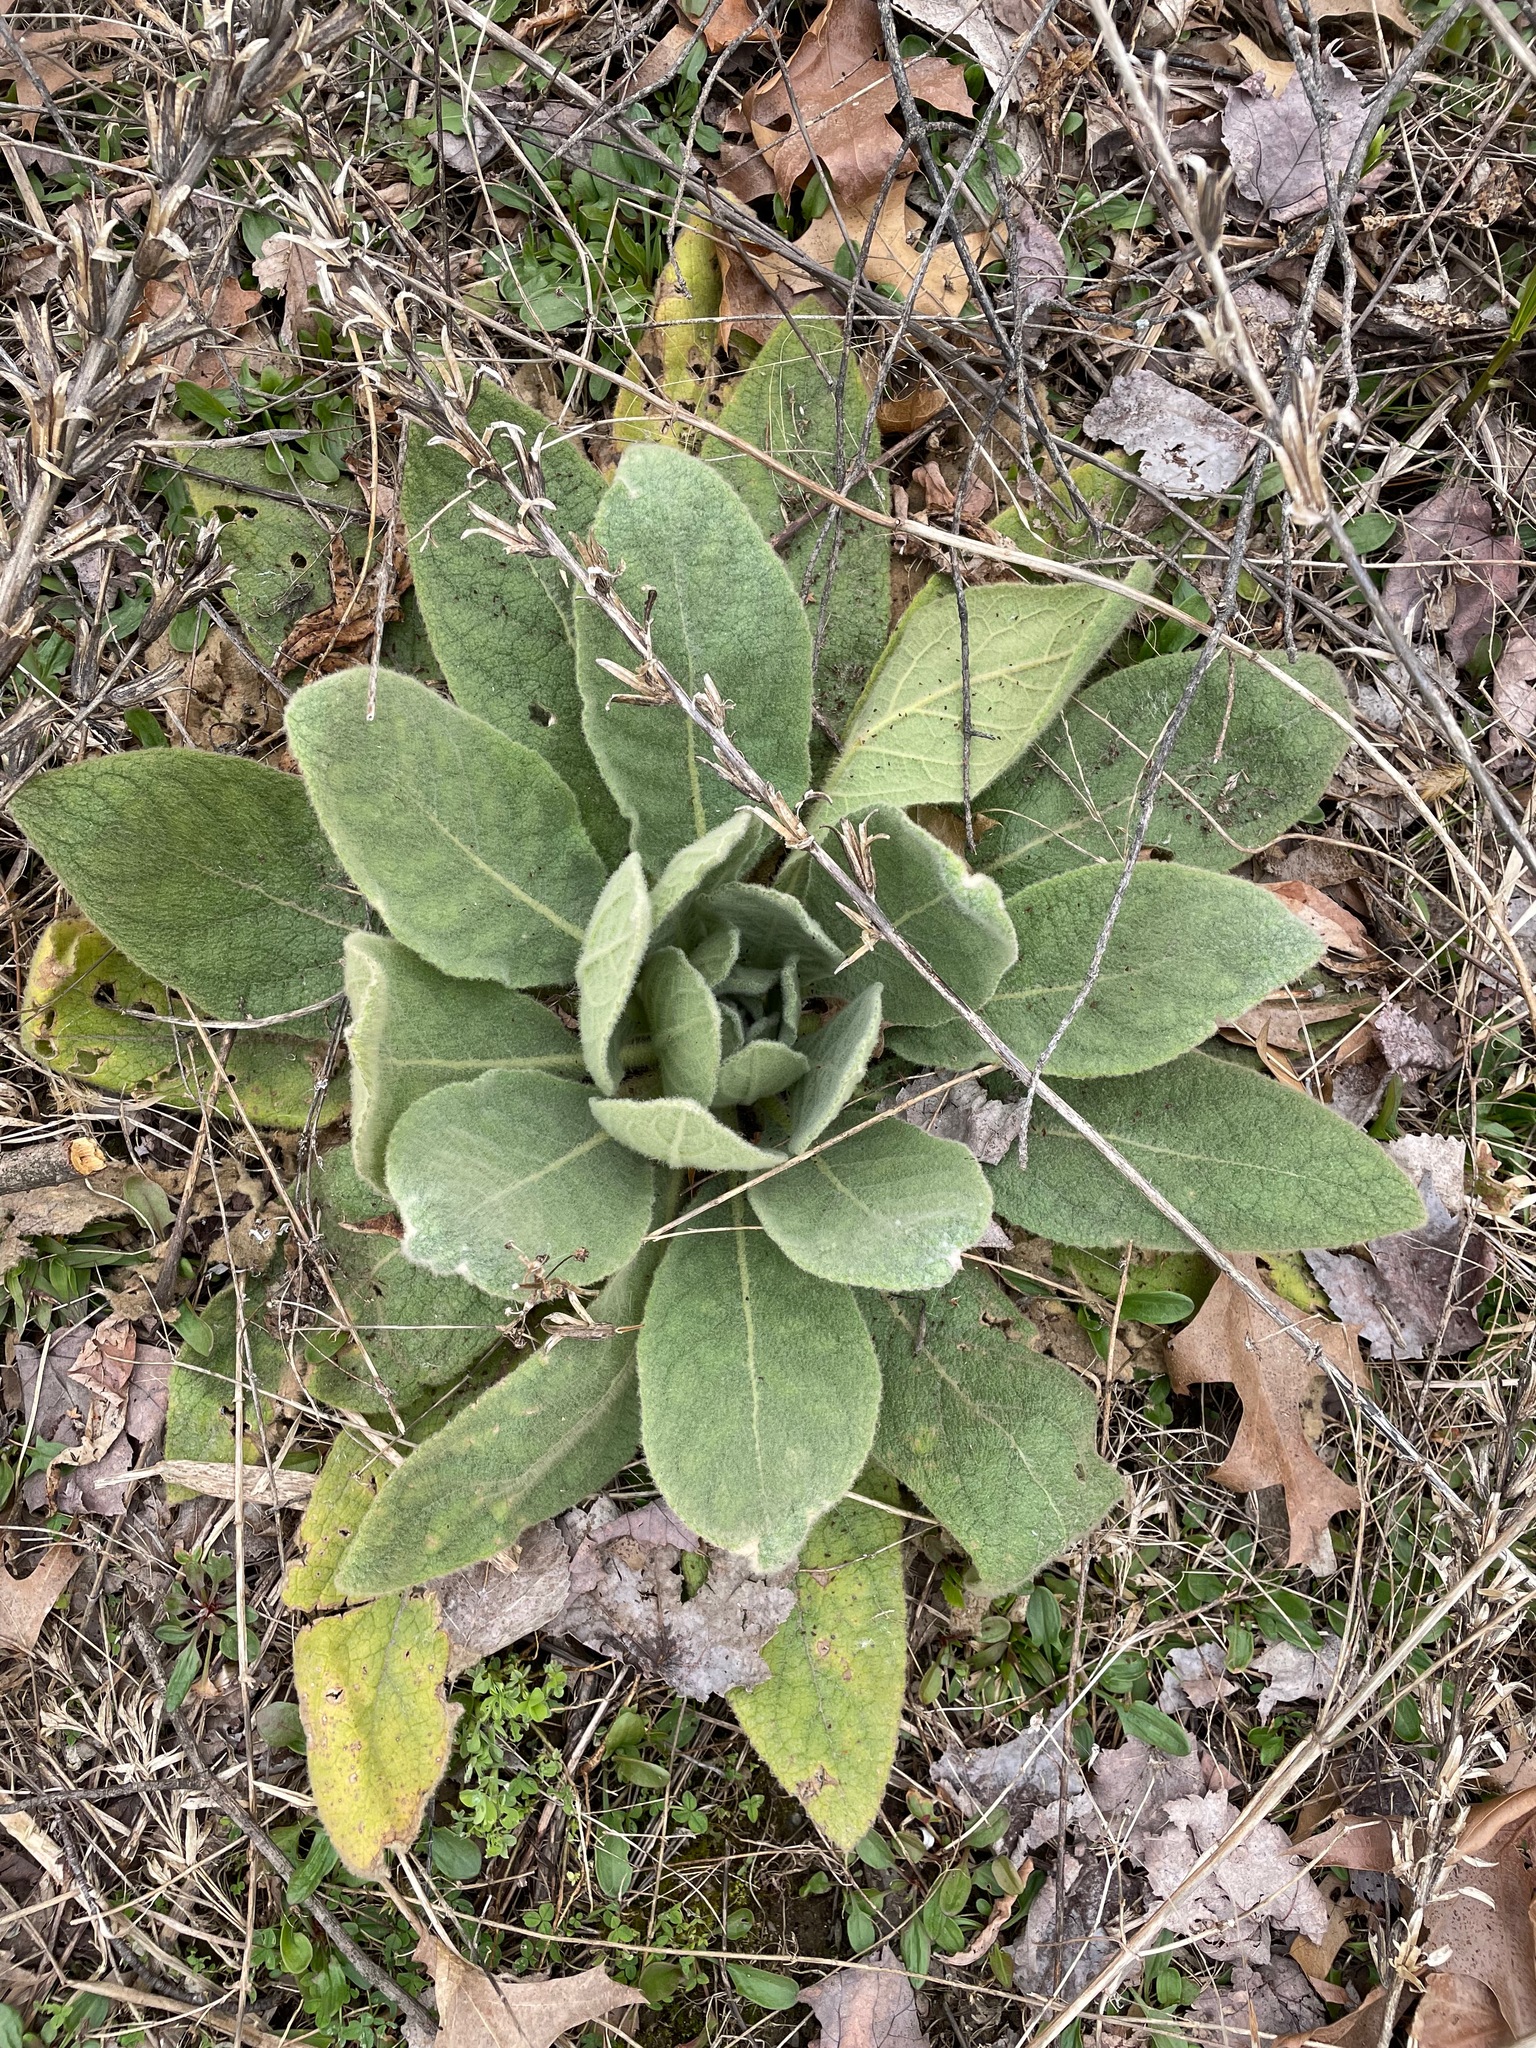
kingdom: Plantae
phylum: Tracheophyta
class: Magnoliopsida
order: Lamiales
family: Scrophulariaceae
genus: Verbascum
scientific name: Verbascum thapsus
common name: Common mullein
